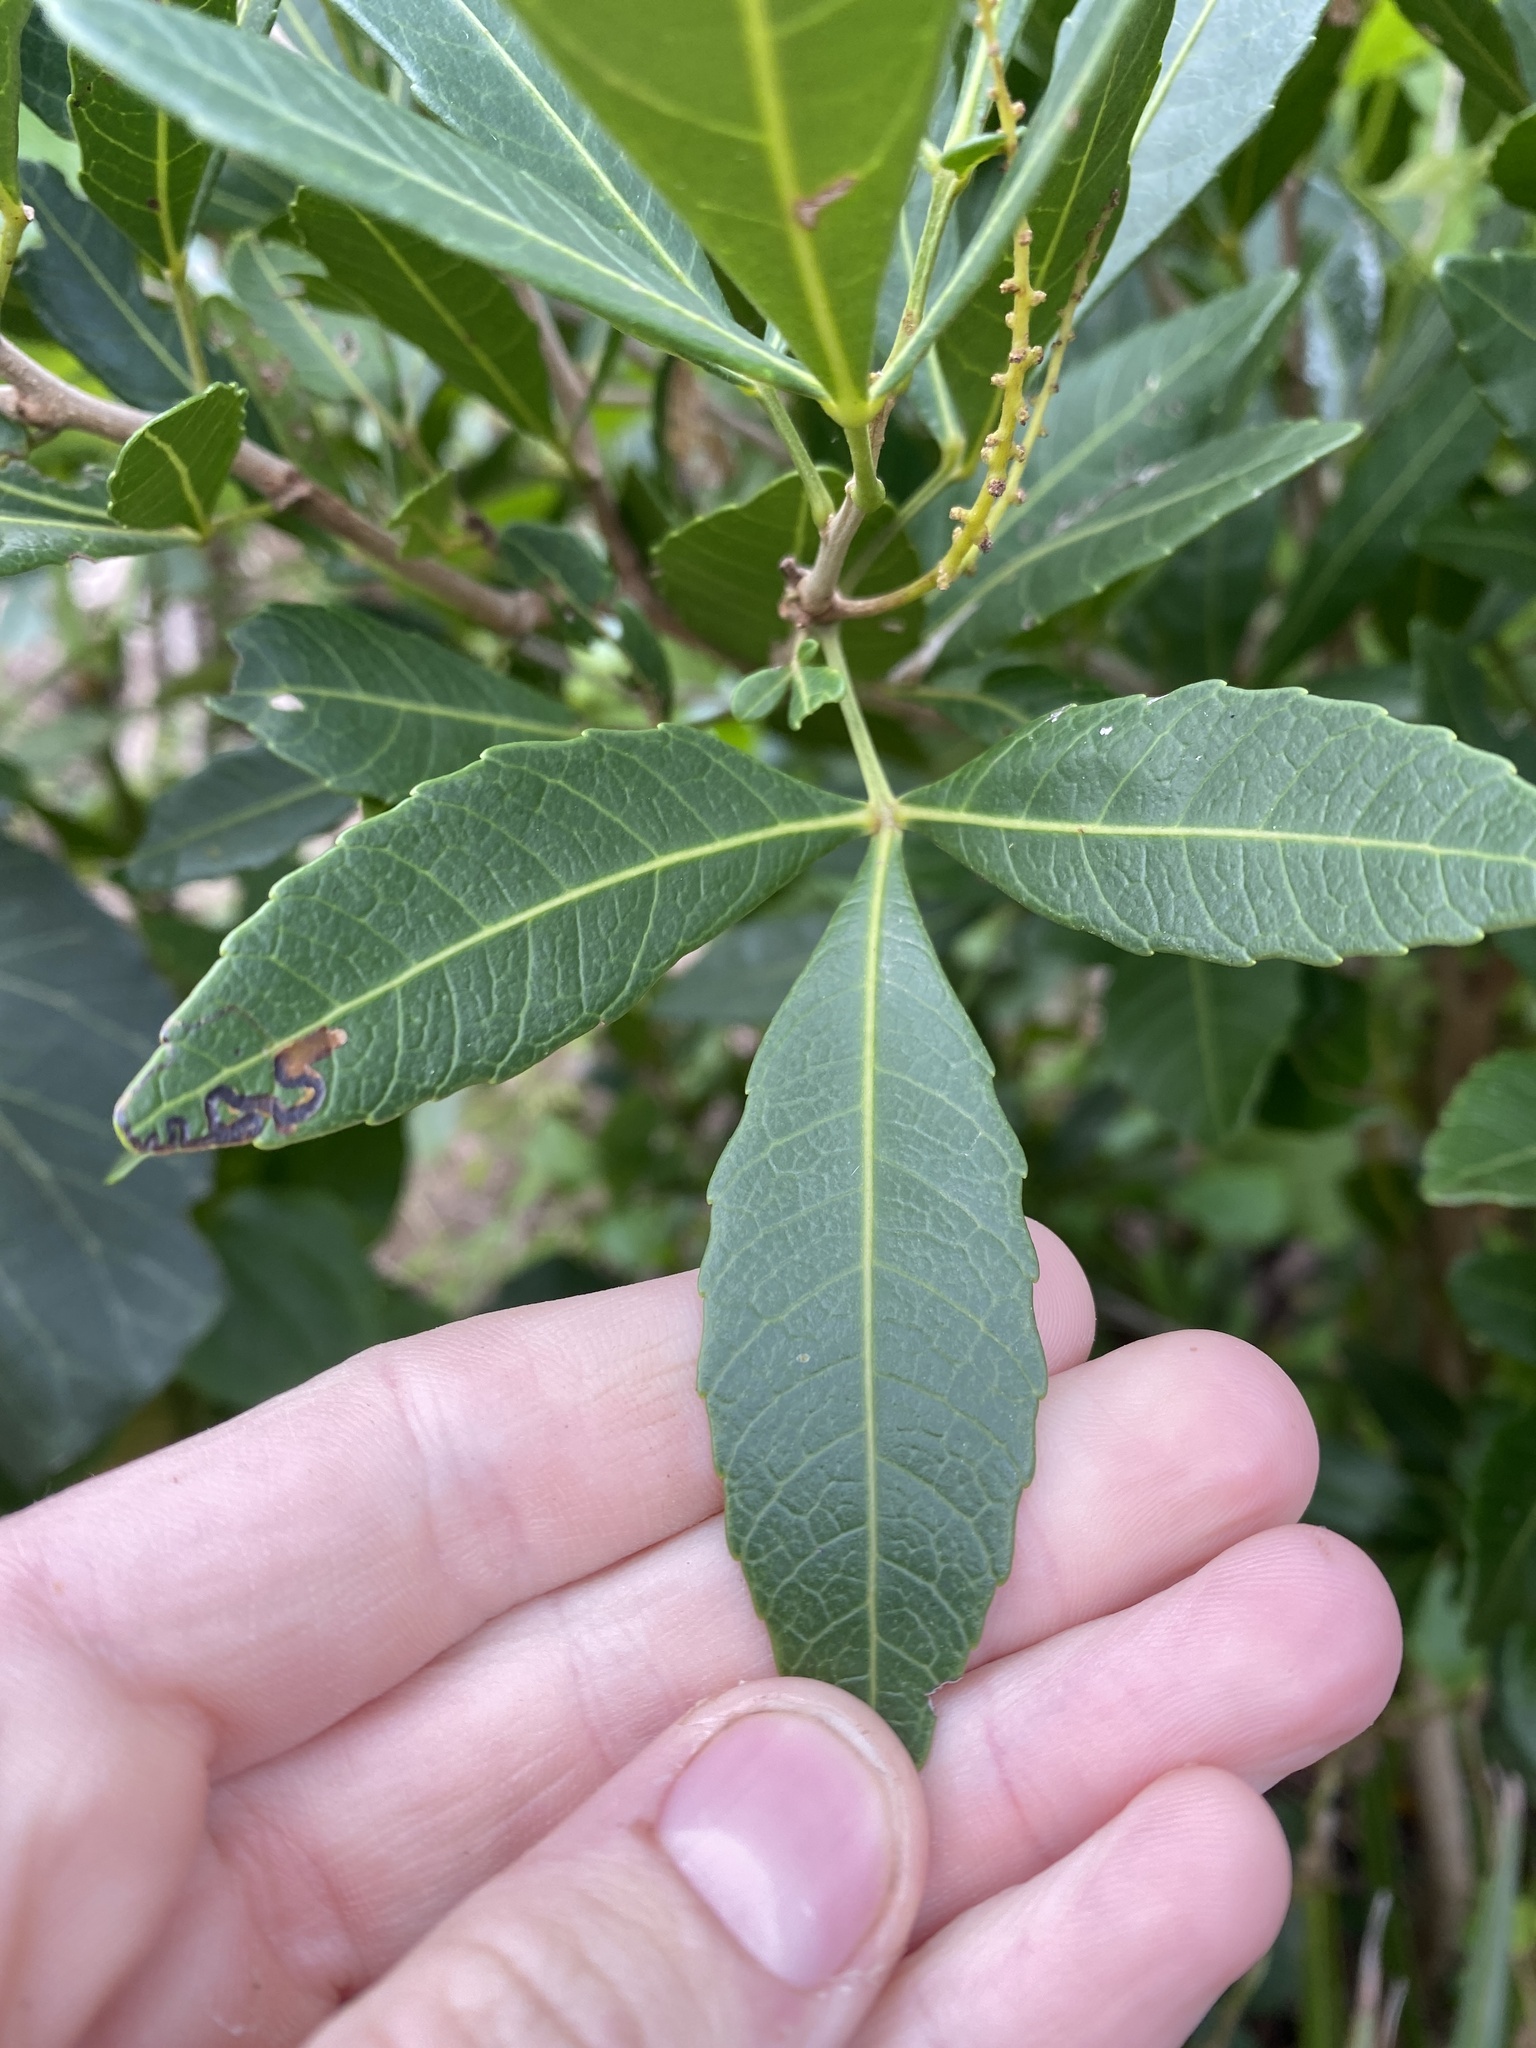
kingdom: Plantae
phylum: Tracheophyta
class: Magnoliopsida
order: Sapindales
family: Sapindaceae
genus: Allophylus
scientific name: Allophylus natalensis
